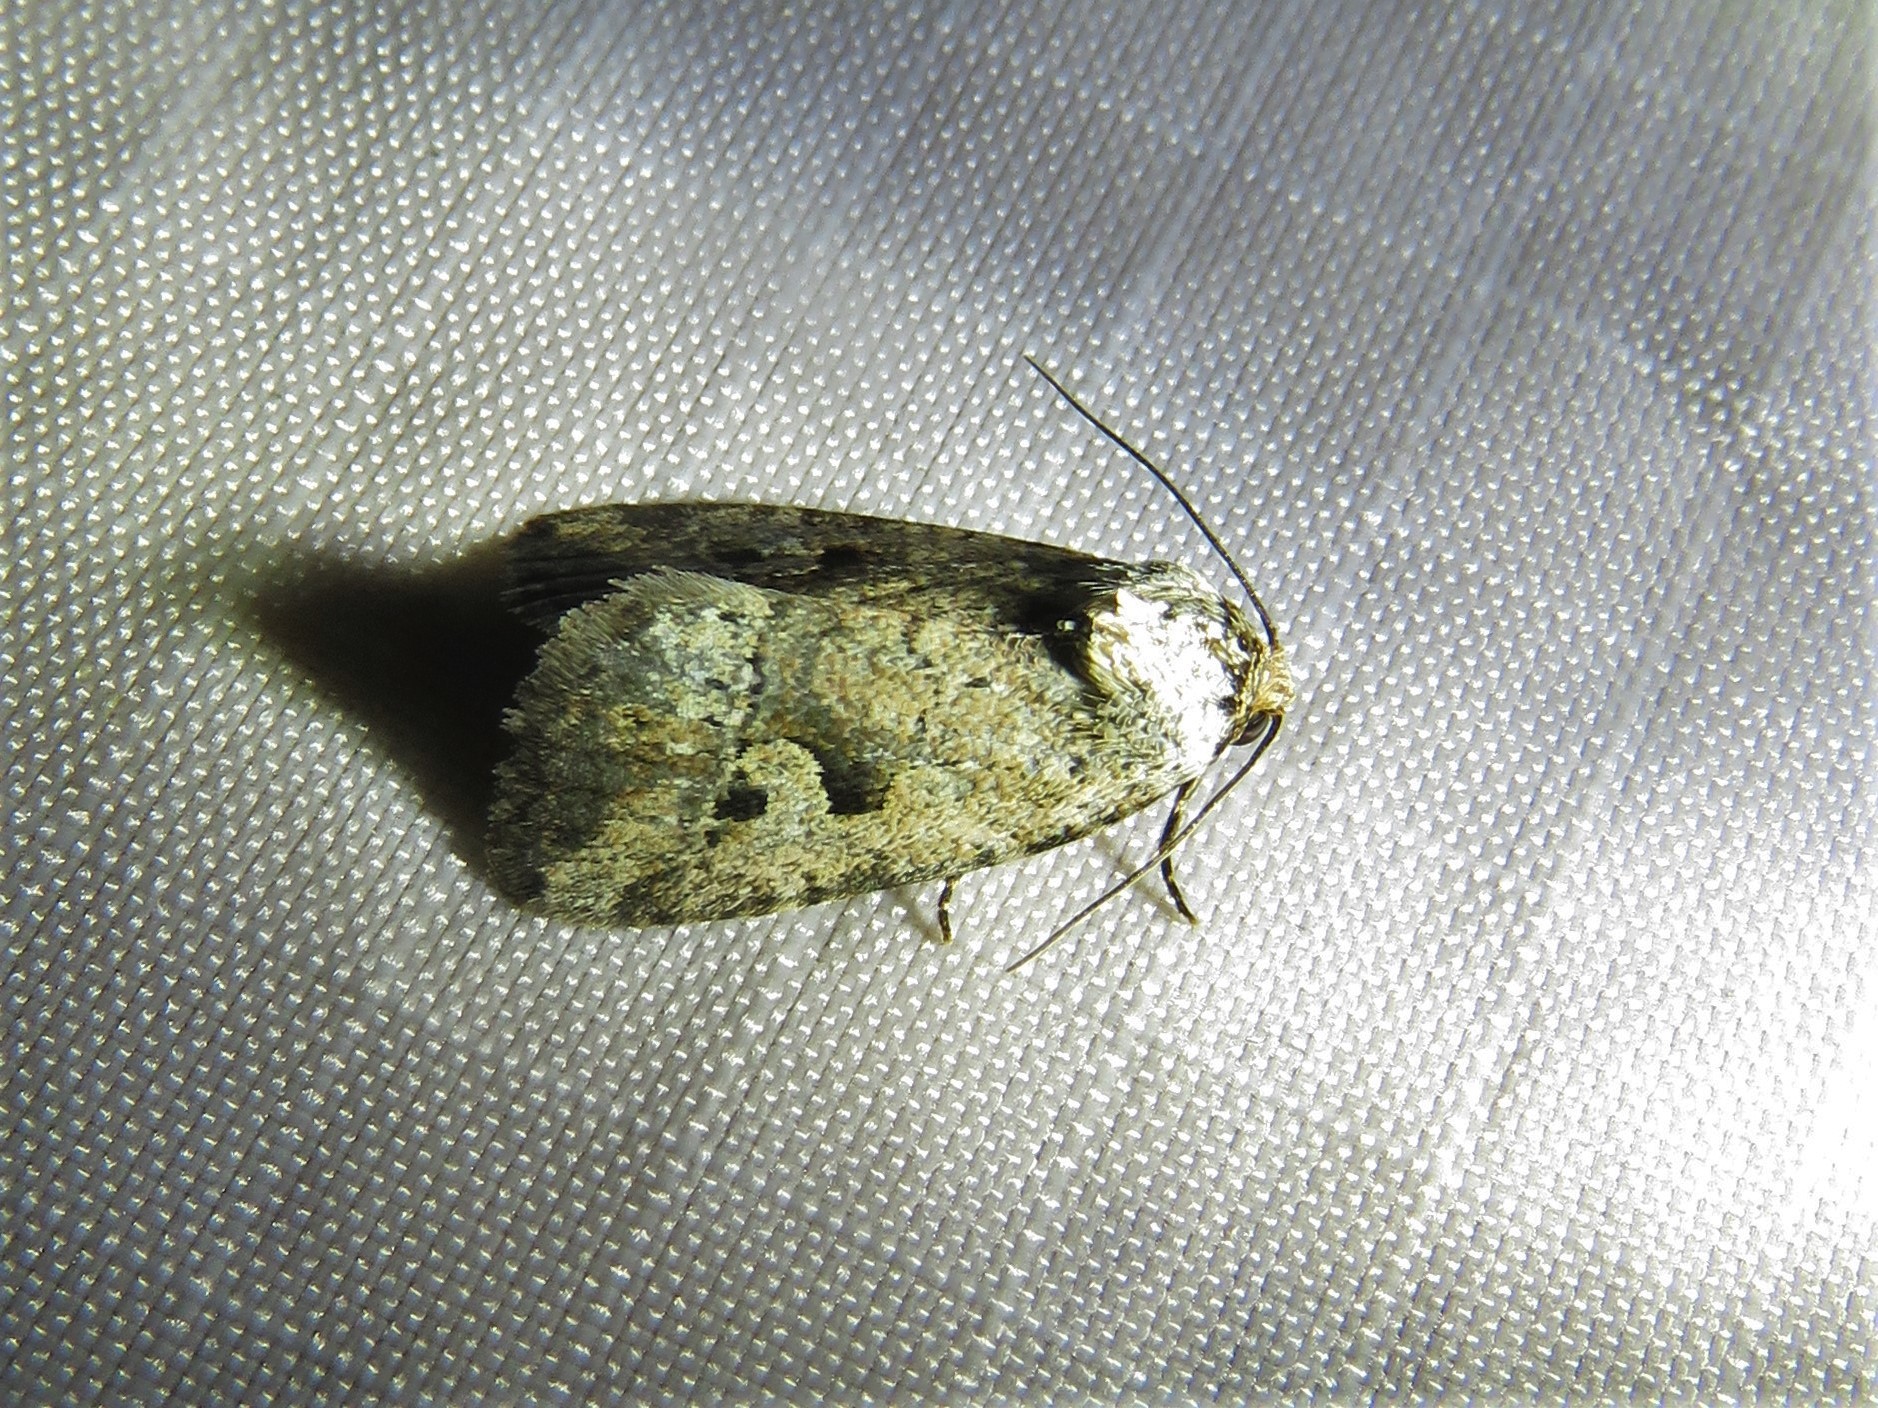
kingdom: Animalia
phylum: Arthropoda
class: Insecta
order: Lepidoptera
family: Noctuidae
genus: Elaphria
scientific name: Elaphria festivoides
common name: Festive midget
